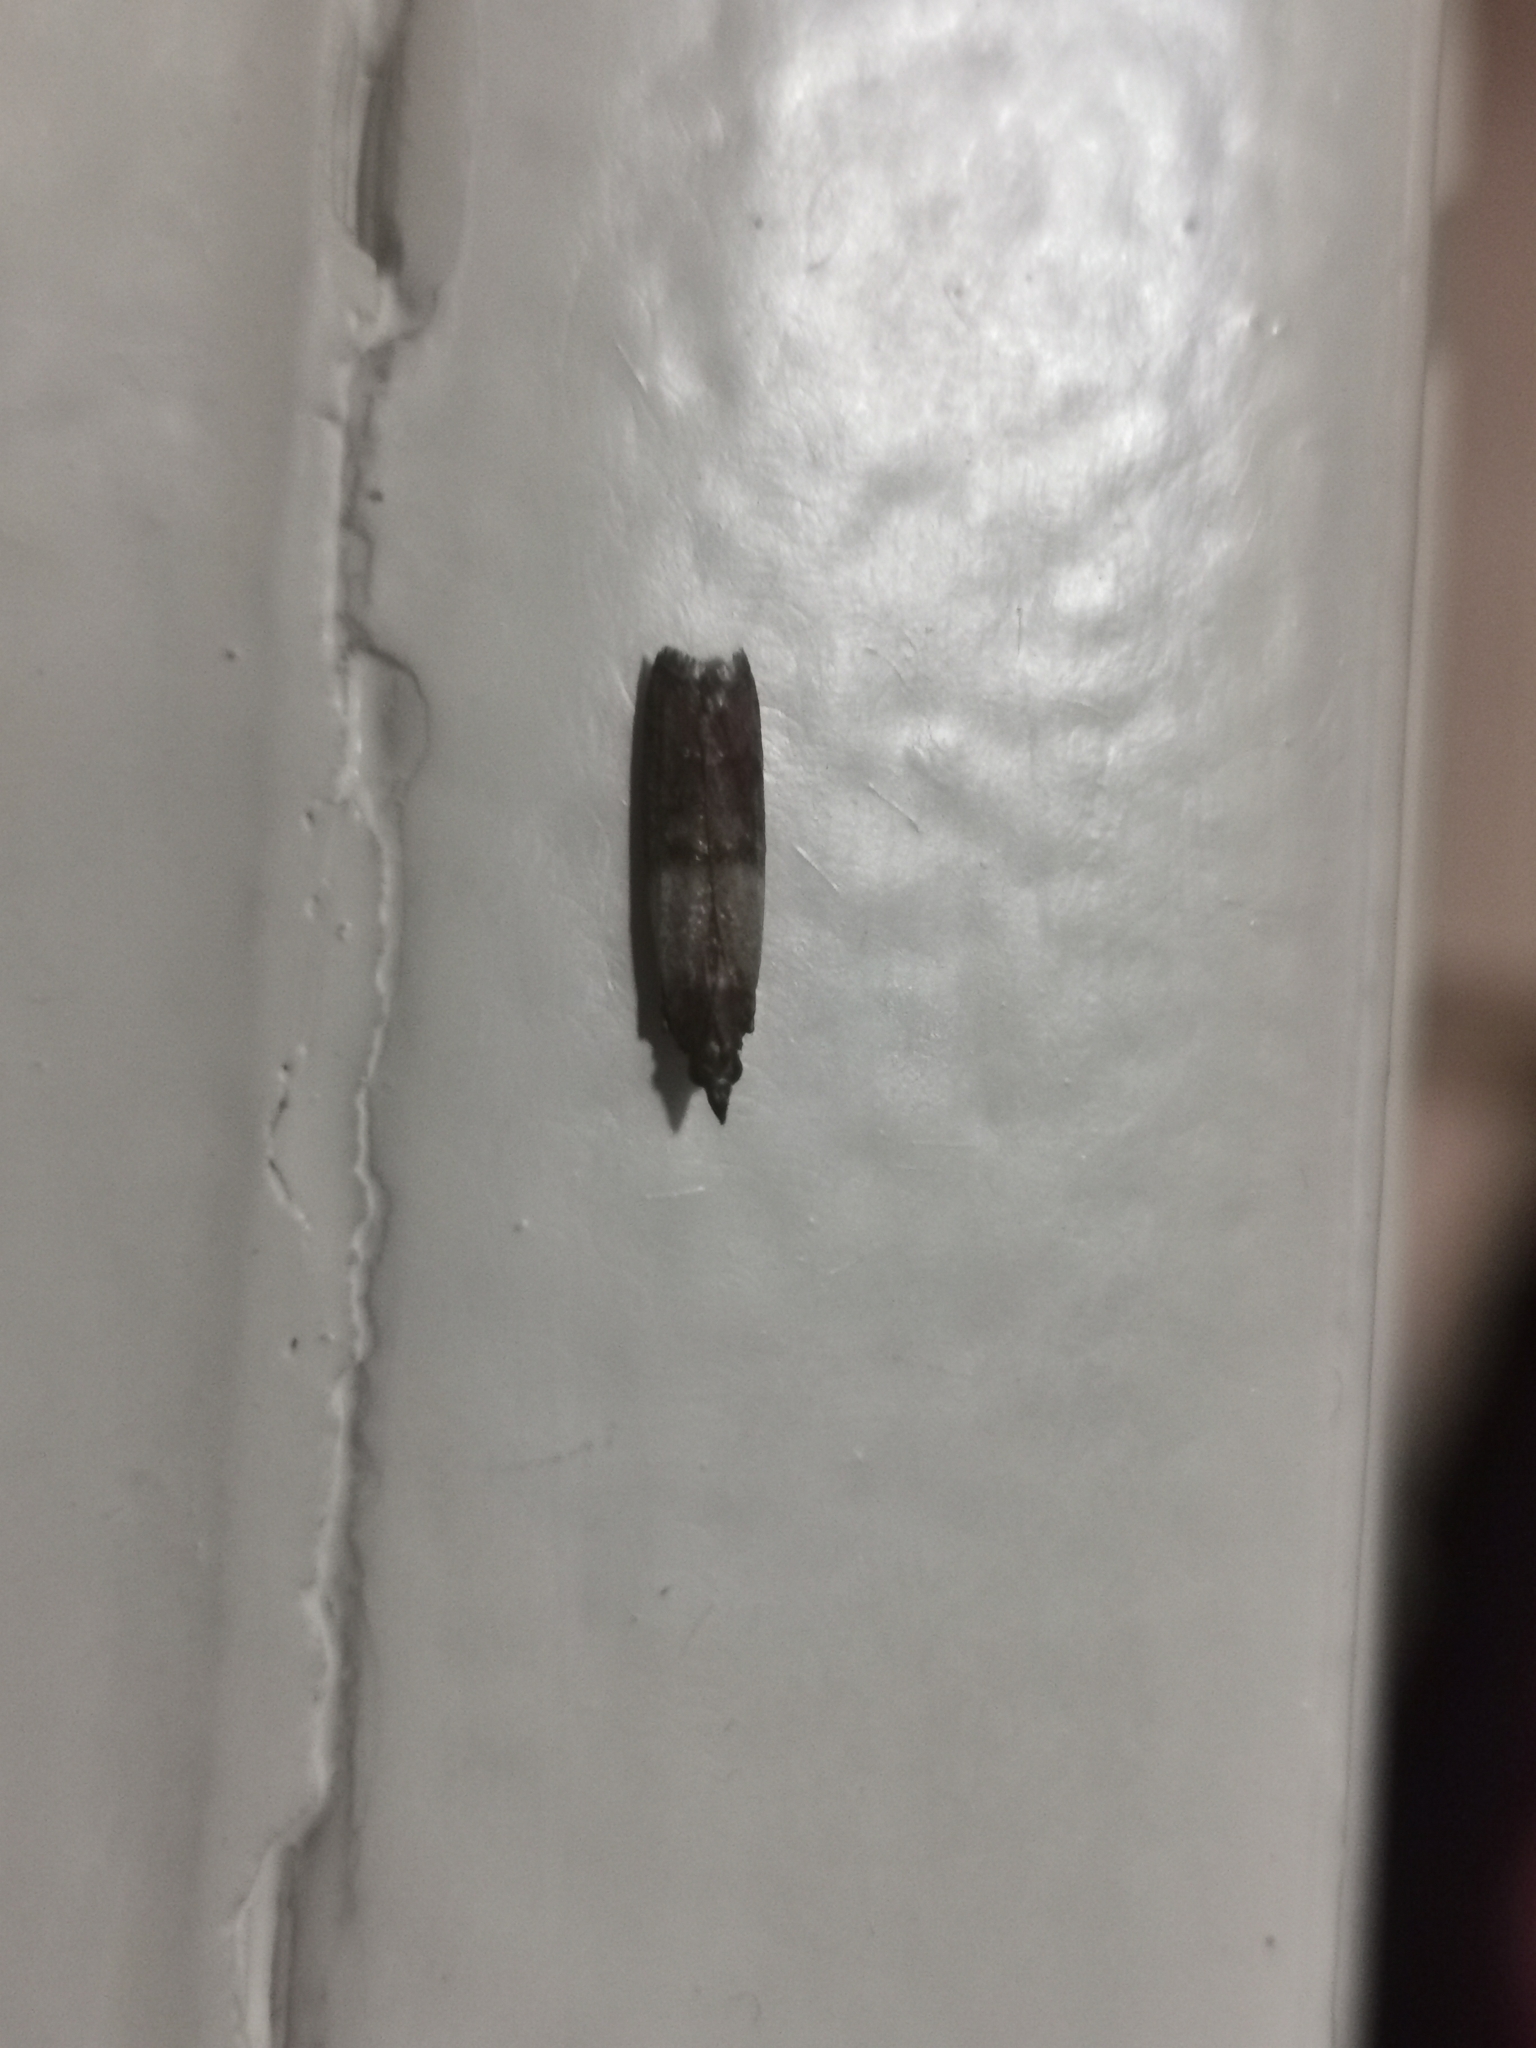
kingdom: Animalia
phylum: Arthropoda
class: Insecta
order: Lepidoptera
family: Pyralidae
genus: Plodia
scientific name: Plodia interpunctella
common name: Indian meal moth
